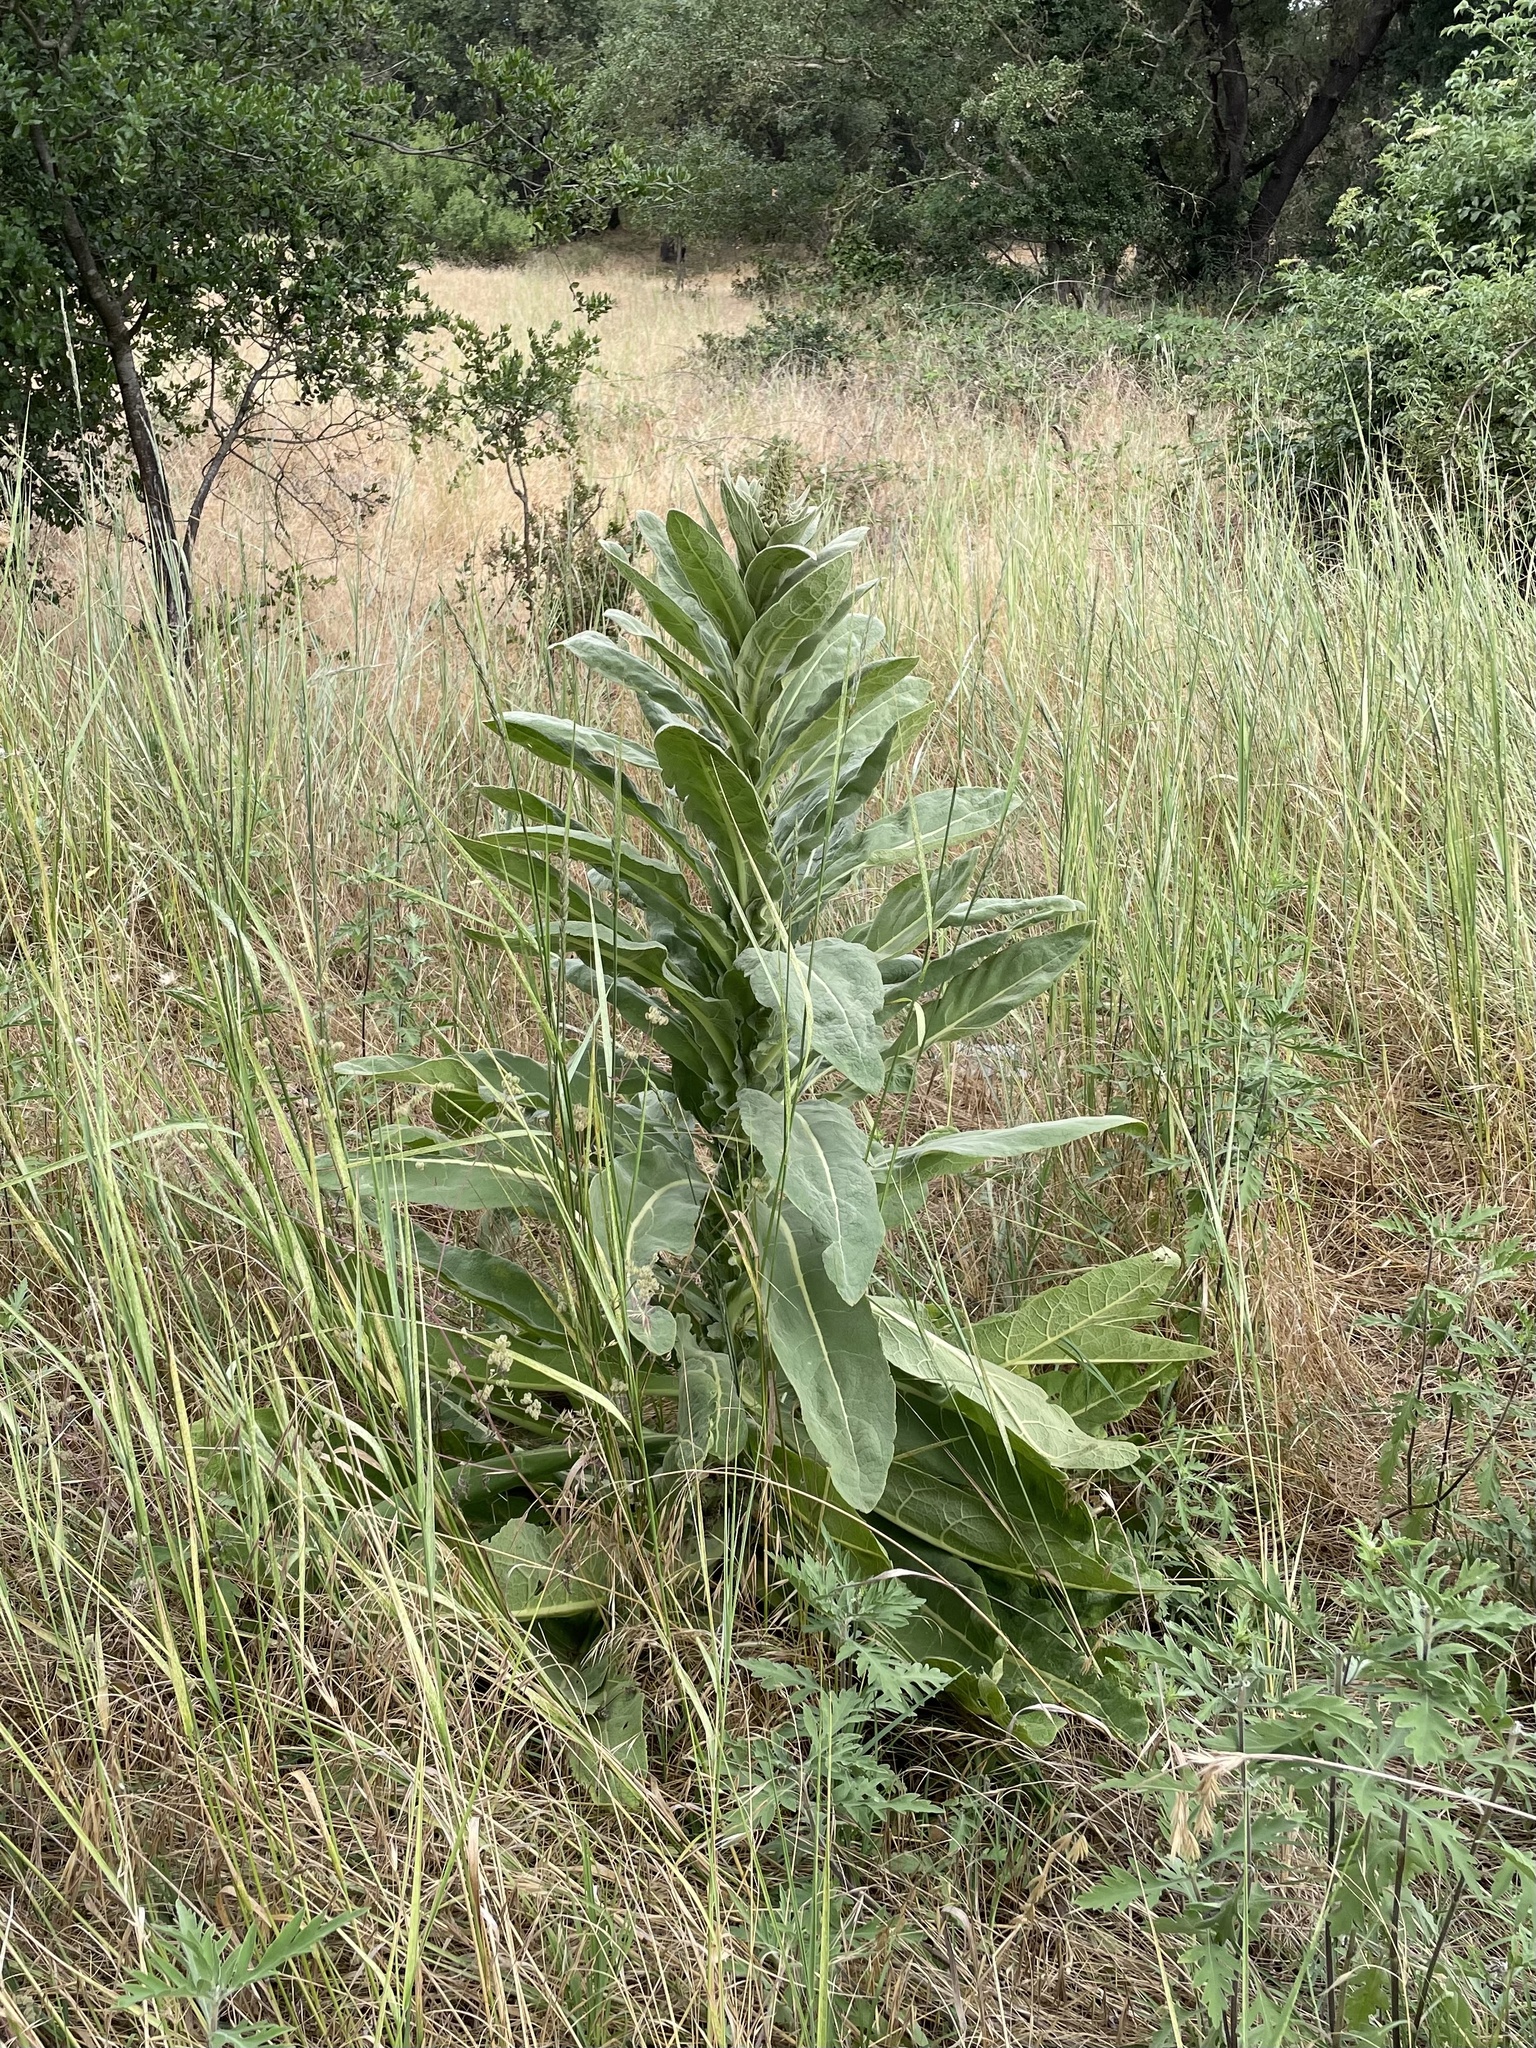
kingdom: Plantae
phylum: Tracheophyta
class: Magnoliopsida
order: Lamiales
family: Scrophulariaceae
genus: Verbascum
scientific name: Verbascum thapsus
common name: Common mullein
